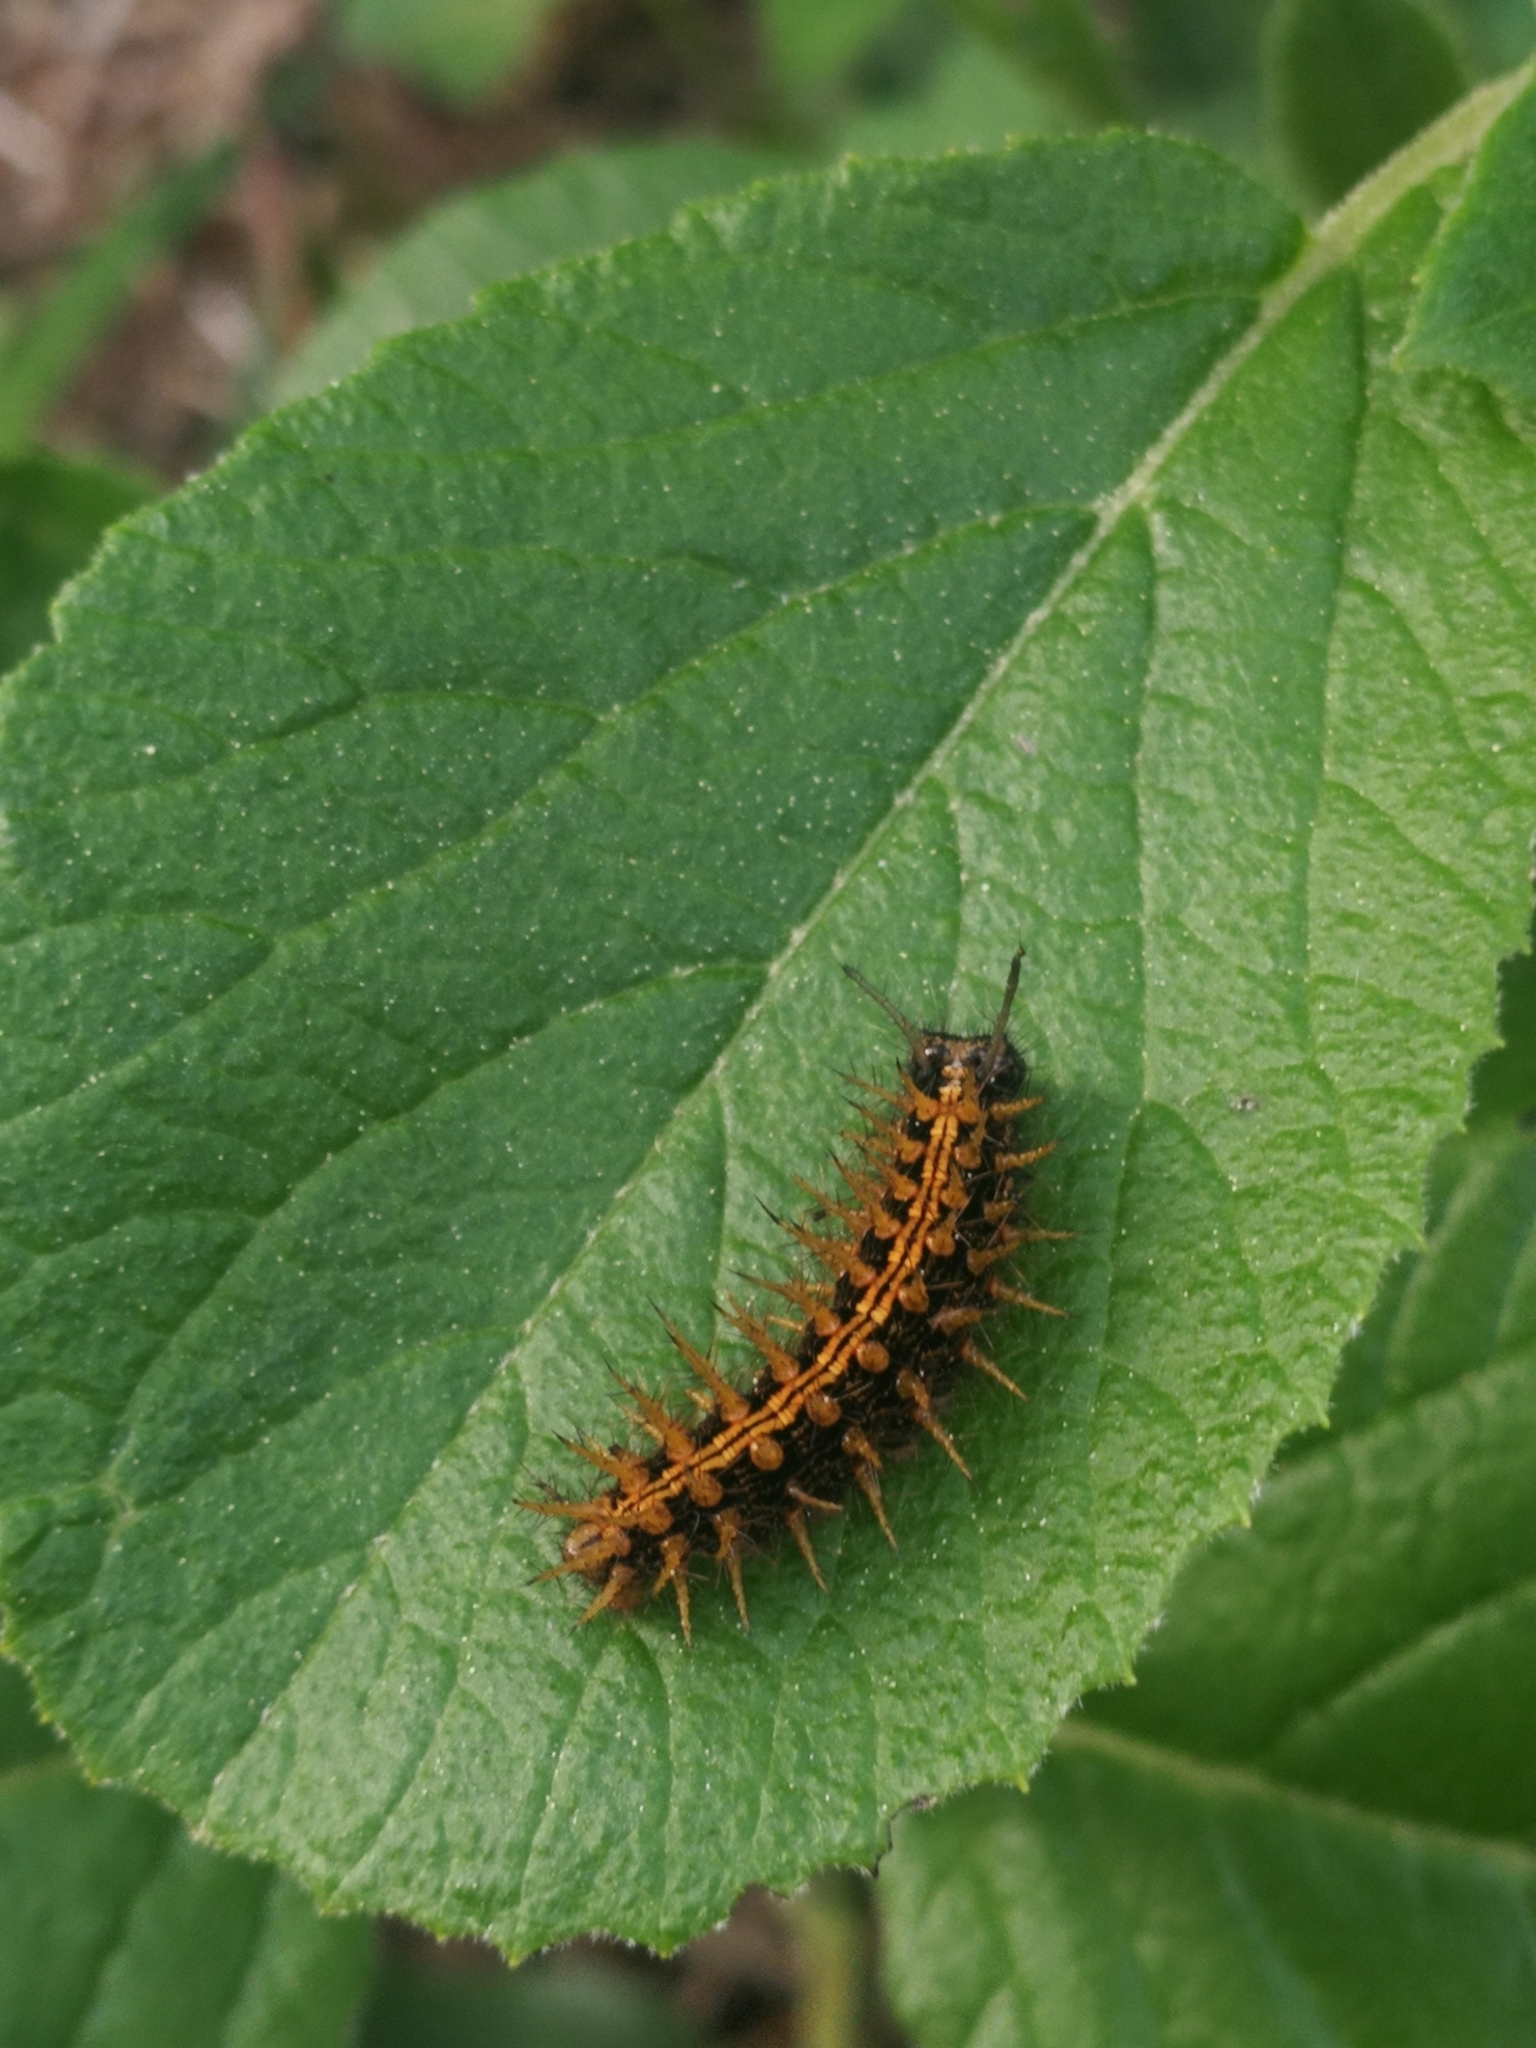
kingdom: Animalia
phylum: Arthropoda
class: Insecta
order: Lepidoptera
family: Nymphalidae
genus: Argynnis
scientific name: Argynnis paphia
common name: Silver-washed fritillary
